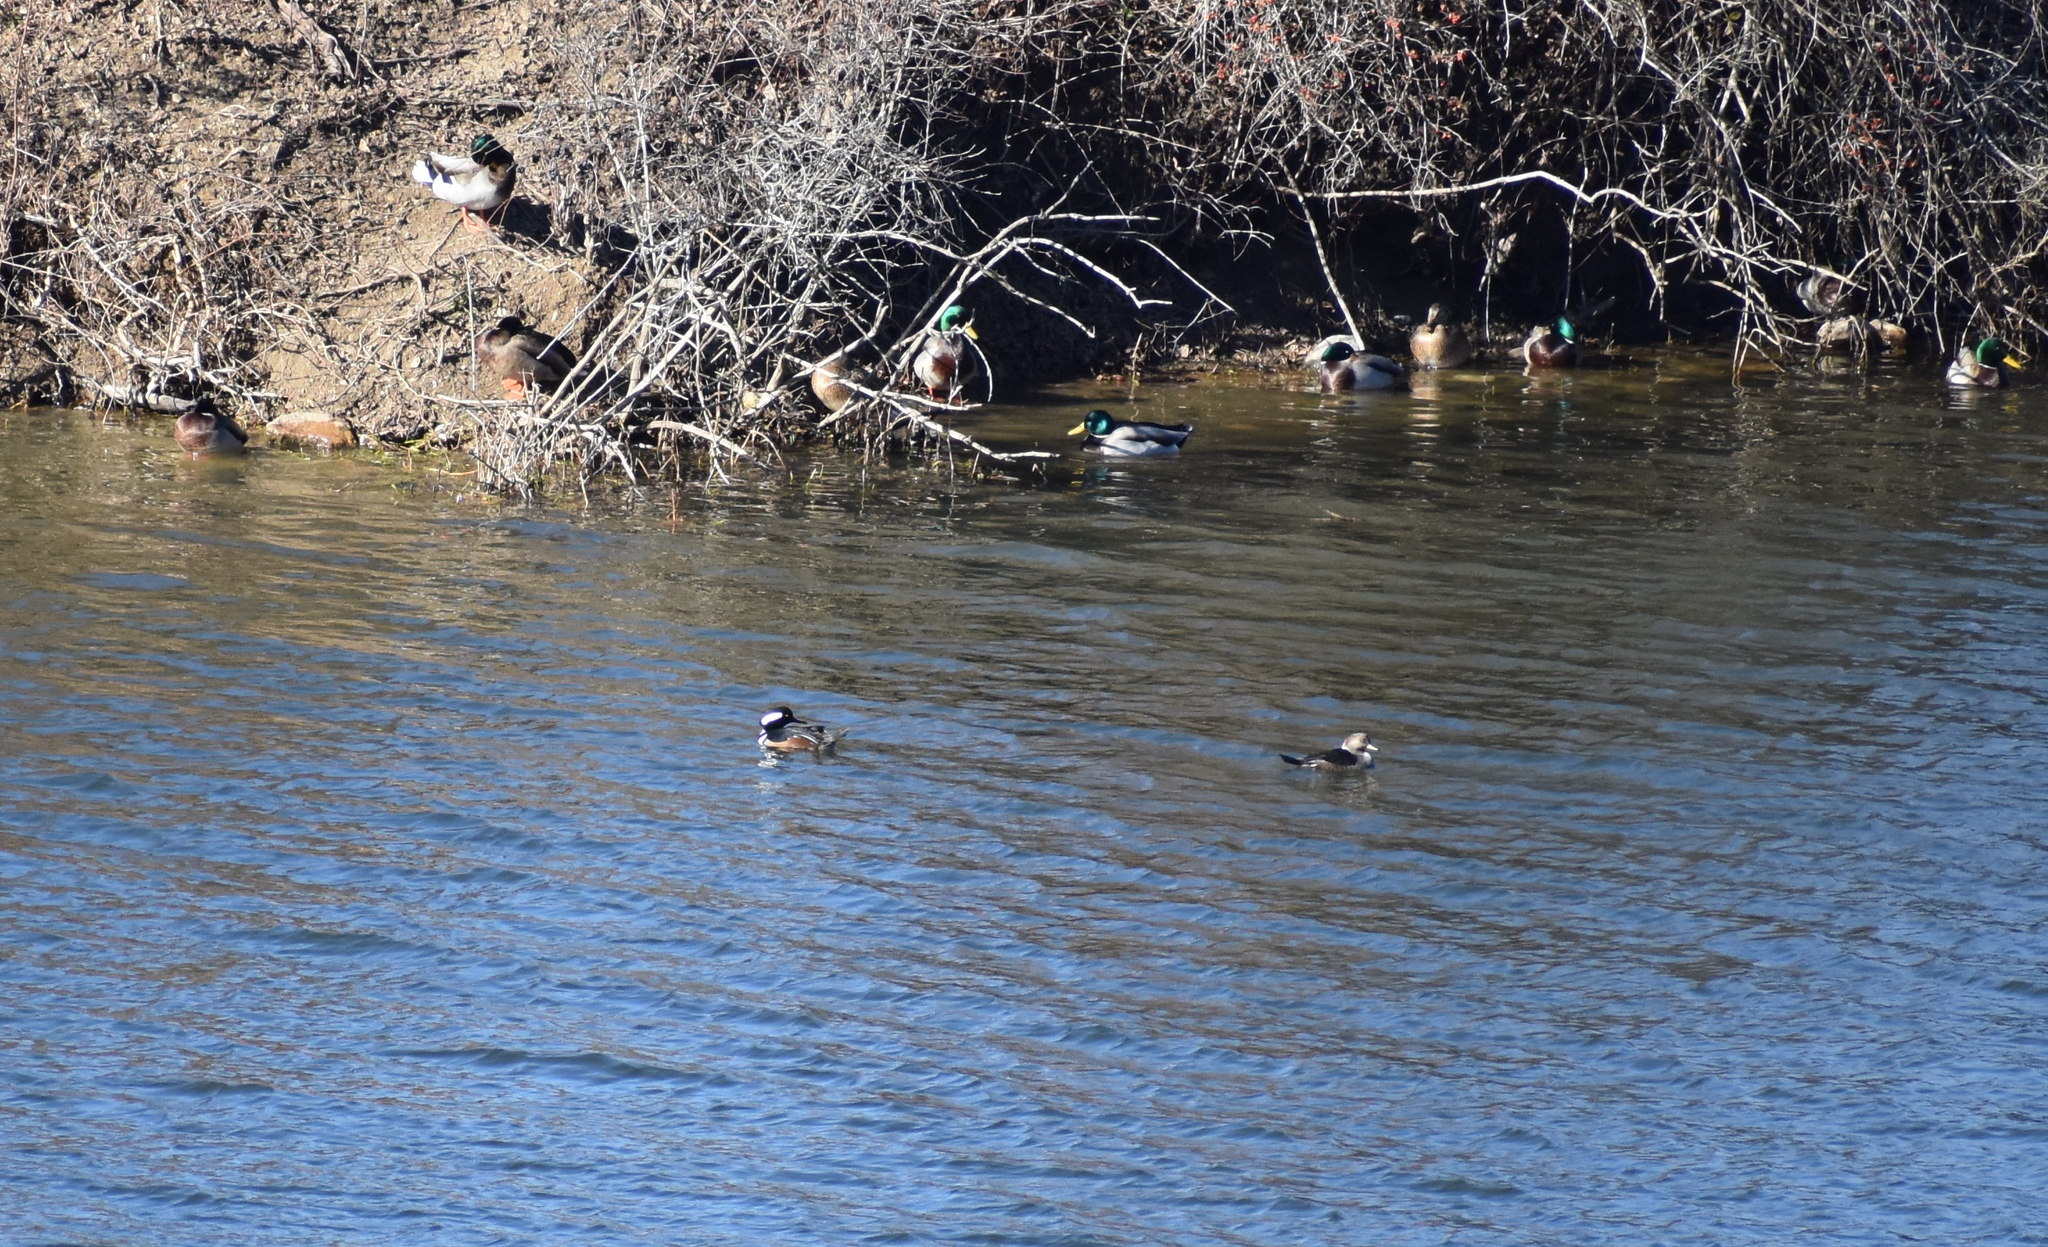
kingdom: Animalia
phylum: Chordata
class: Aves
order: Anseriformes
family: Anatidae
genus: Lophodytes
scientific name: Lophodytes cucullatus
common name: Hooded merganser
